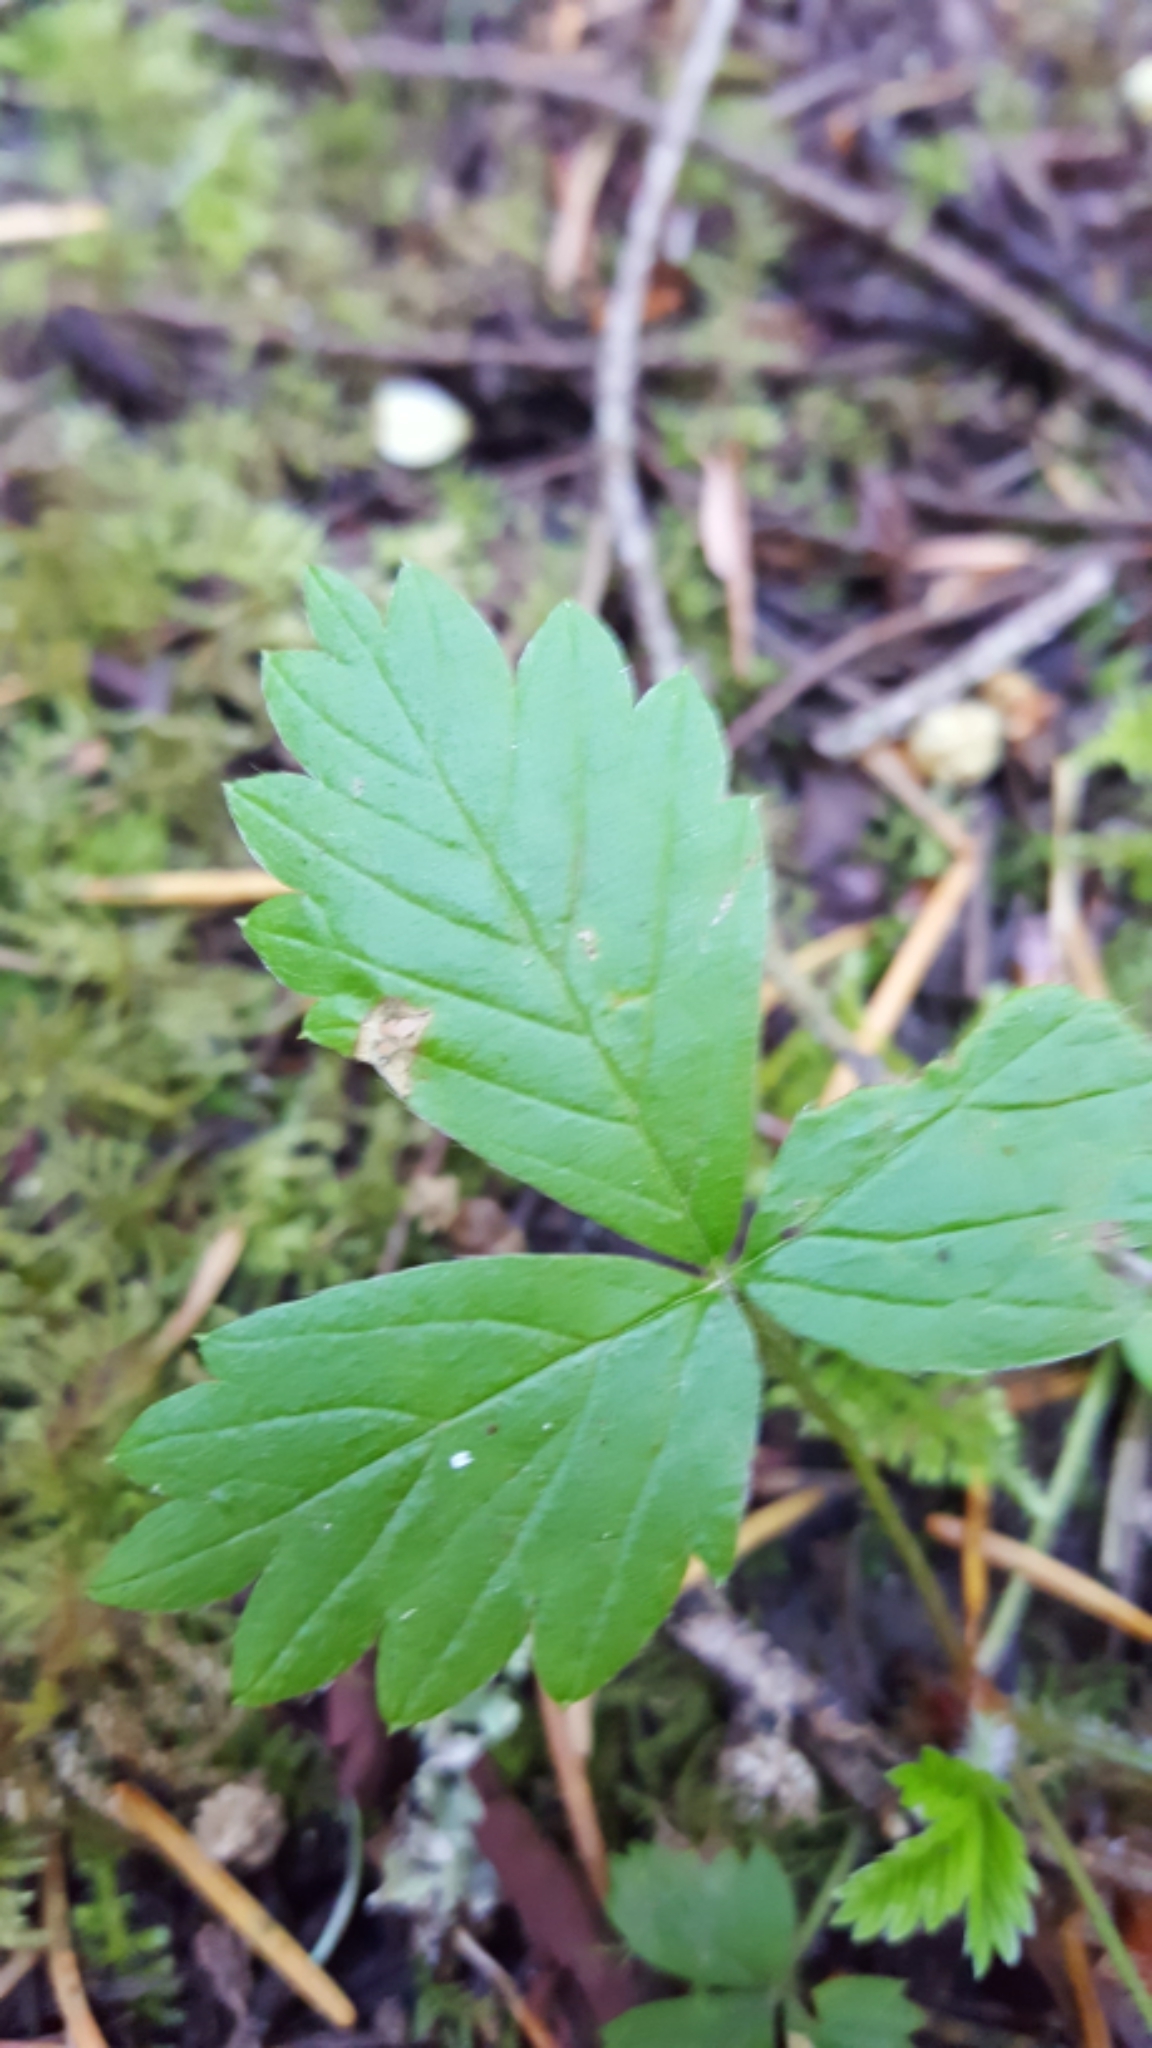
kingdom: Plantae
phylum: Tracheophyta
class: Magnoliopsida
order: Rosales
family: Rosaceae
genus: Fragaria
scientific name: Fragaria vesca
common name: Wild strawberry
